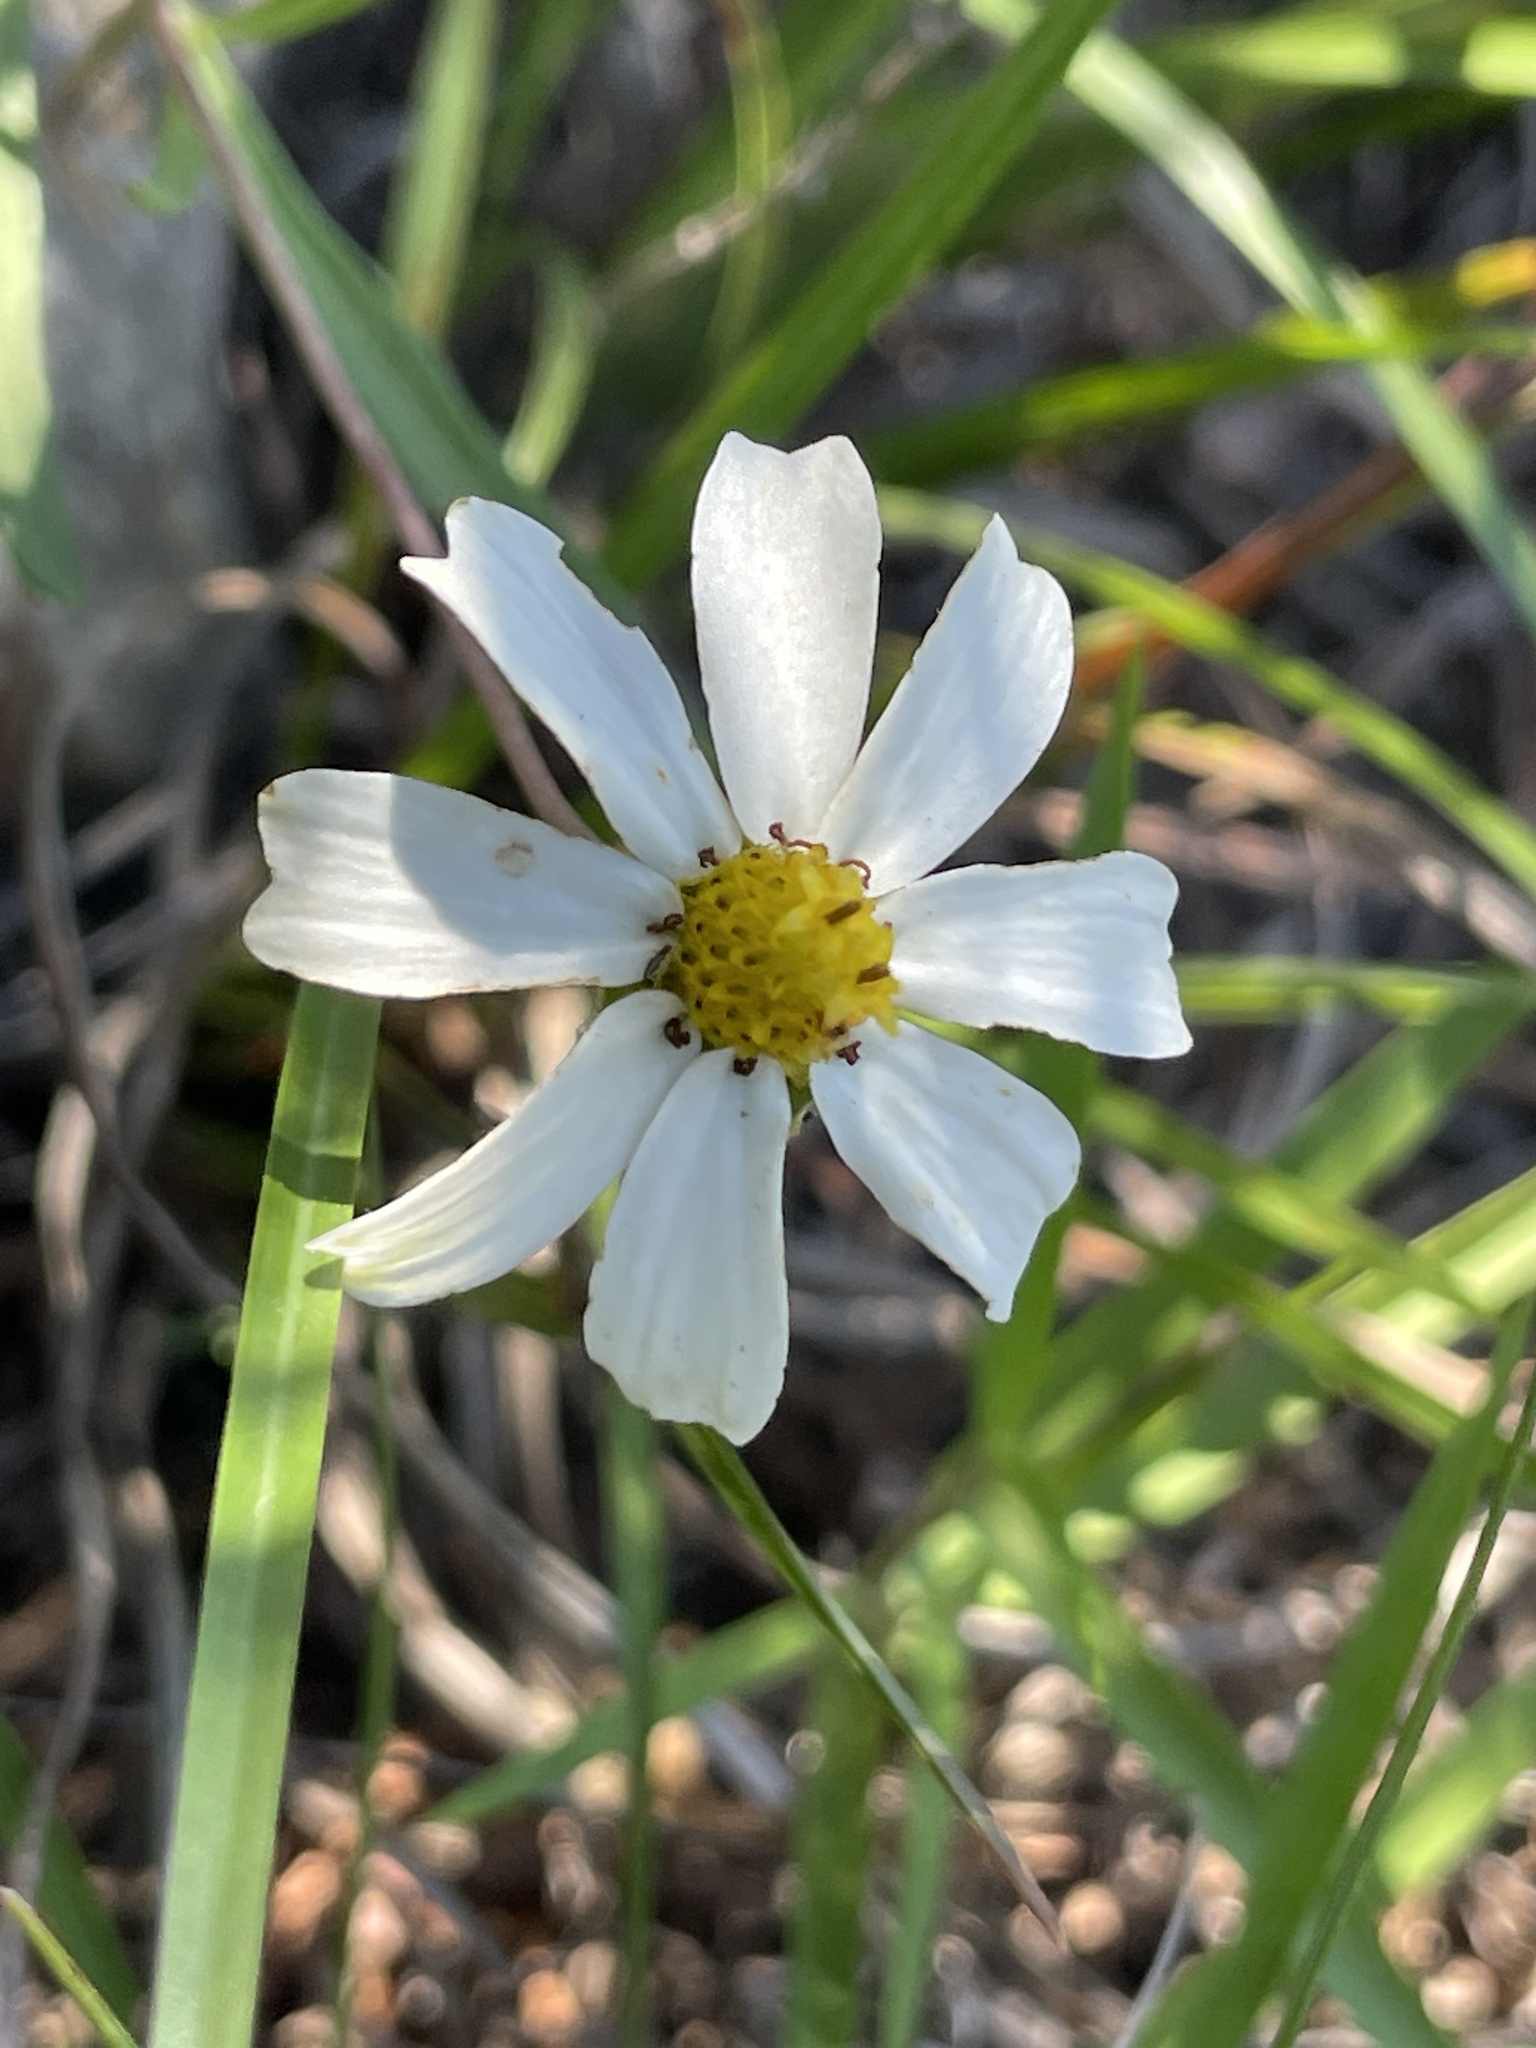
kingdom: Plantae
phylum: Tracheophyta
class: Magnoliopsida
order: Asterales
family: Asteraceae
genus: Melampodium
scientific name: Melampodium leucanthum
